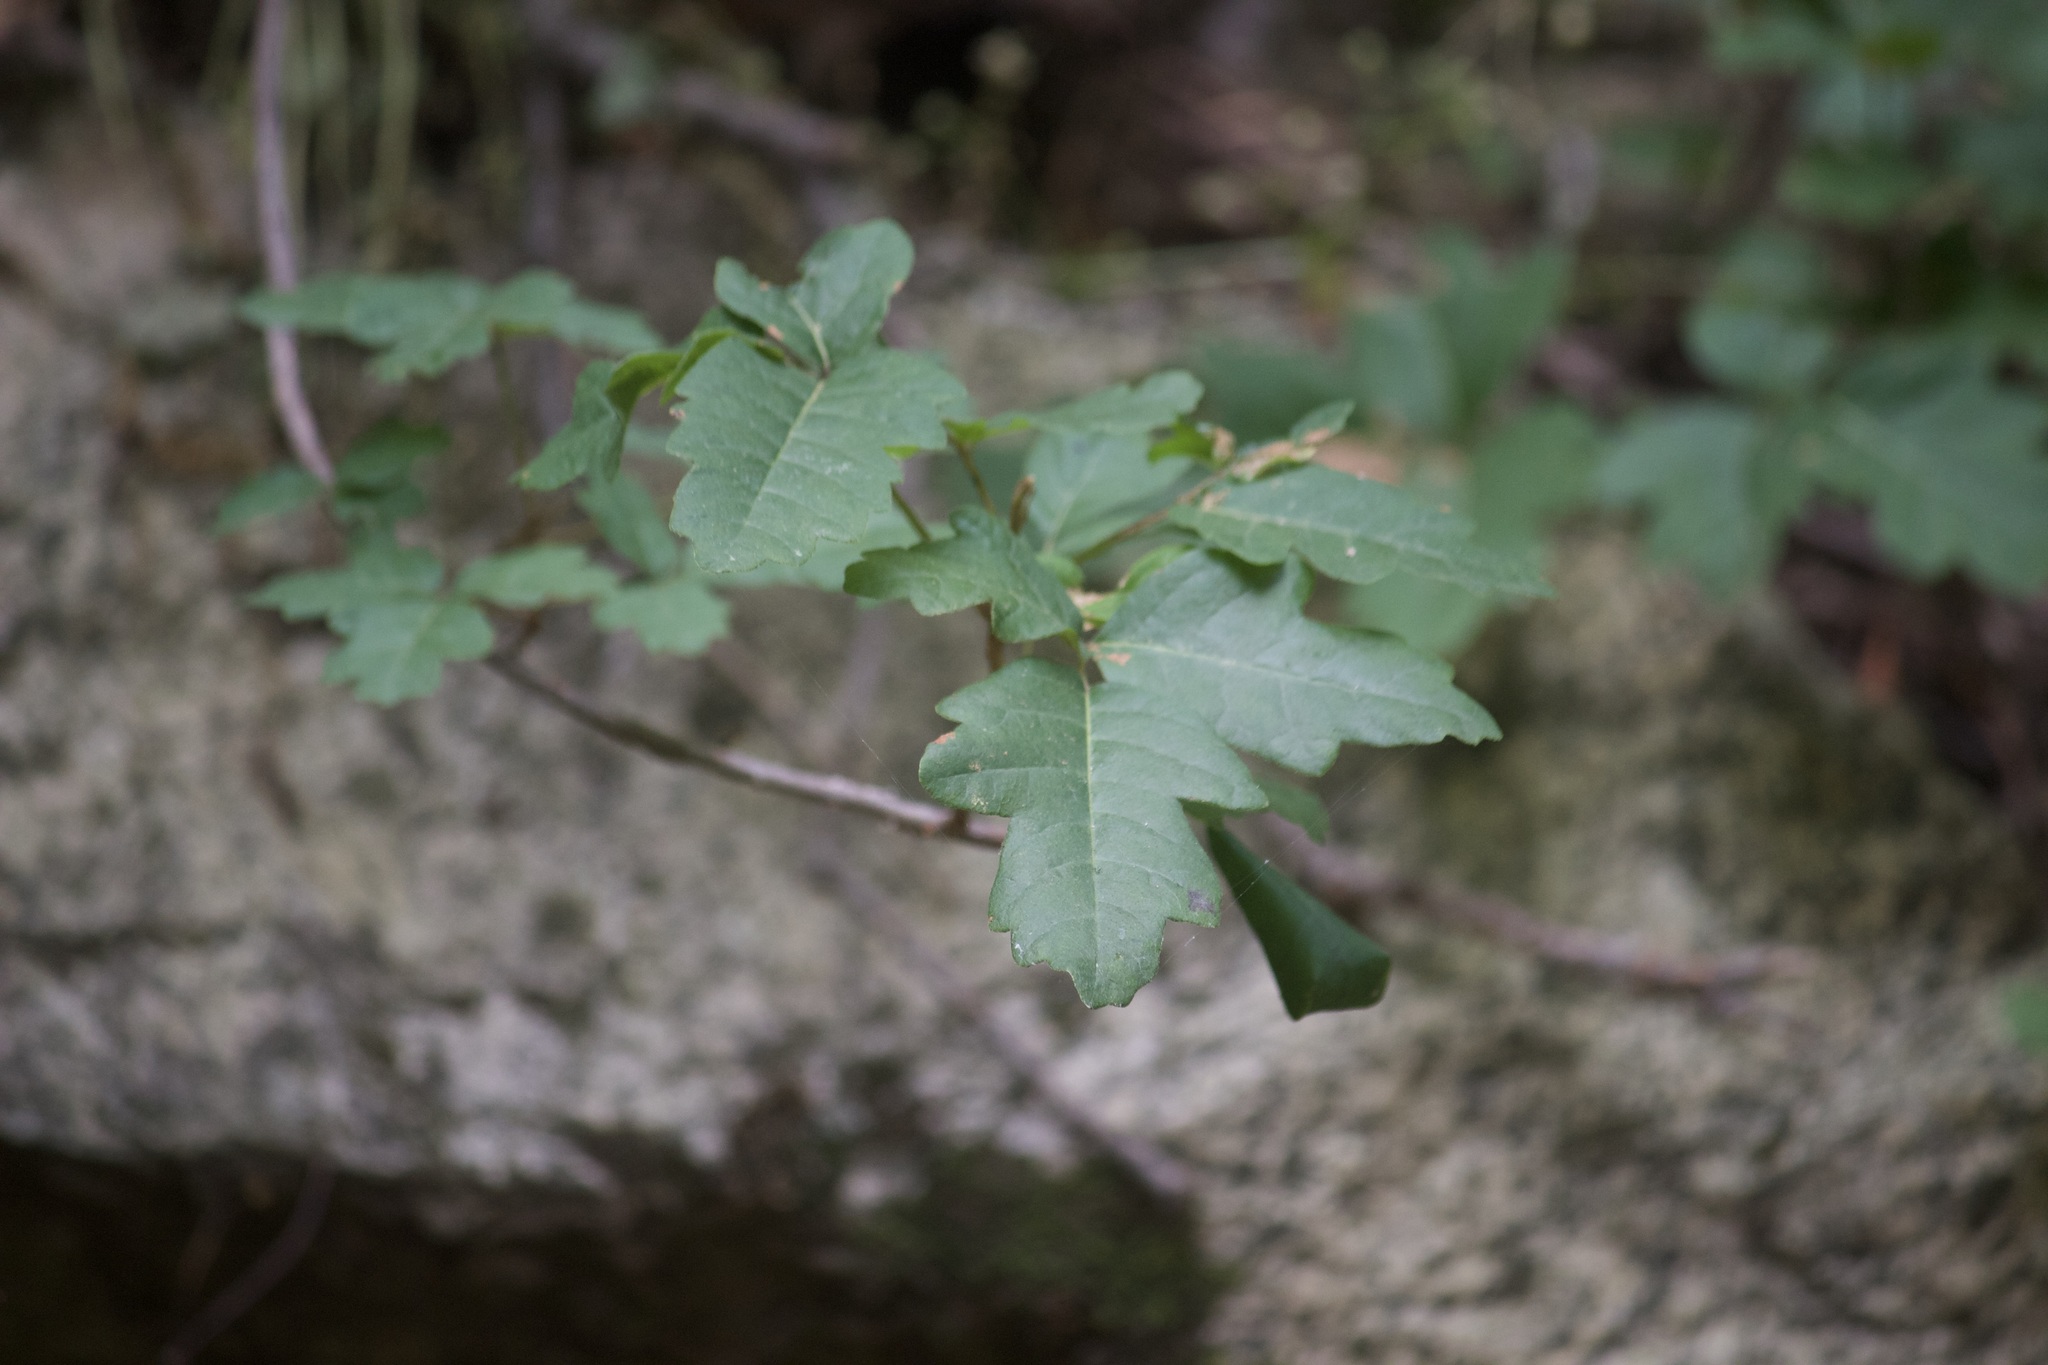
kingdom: Plantae
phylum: Tracheophyta
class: Magnoliopsida
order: Sapindales
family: Anacardiaceae
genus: Toxicodendron
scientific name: Toxicodendron diversilobum
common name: Pacific poison-oak
